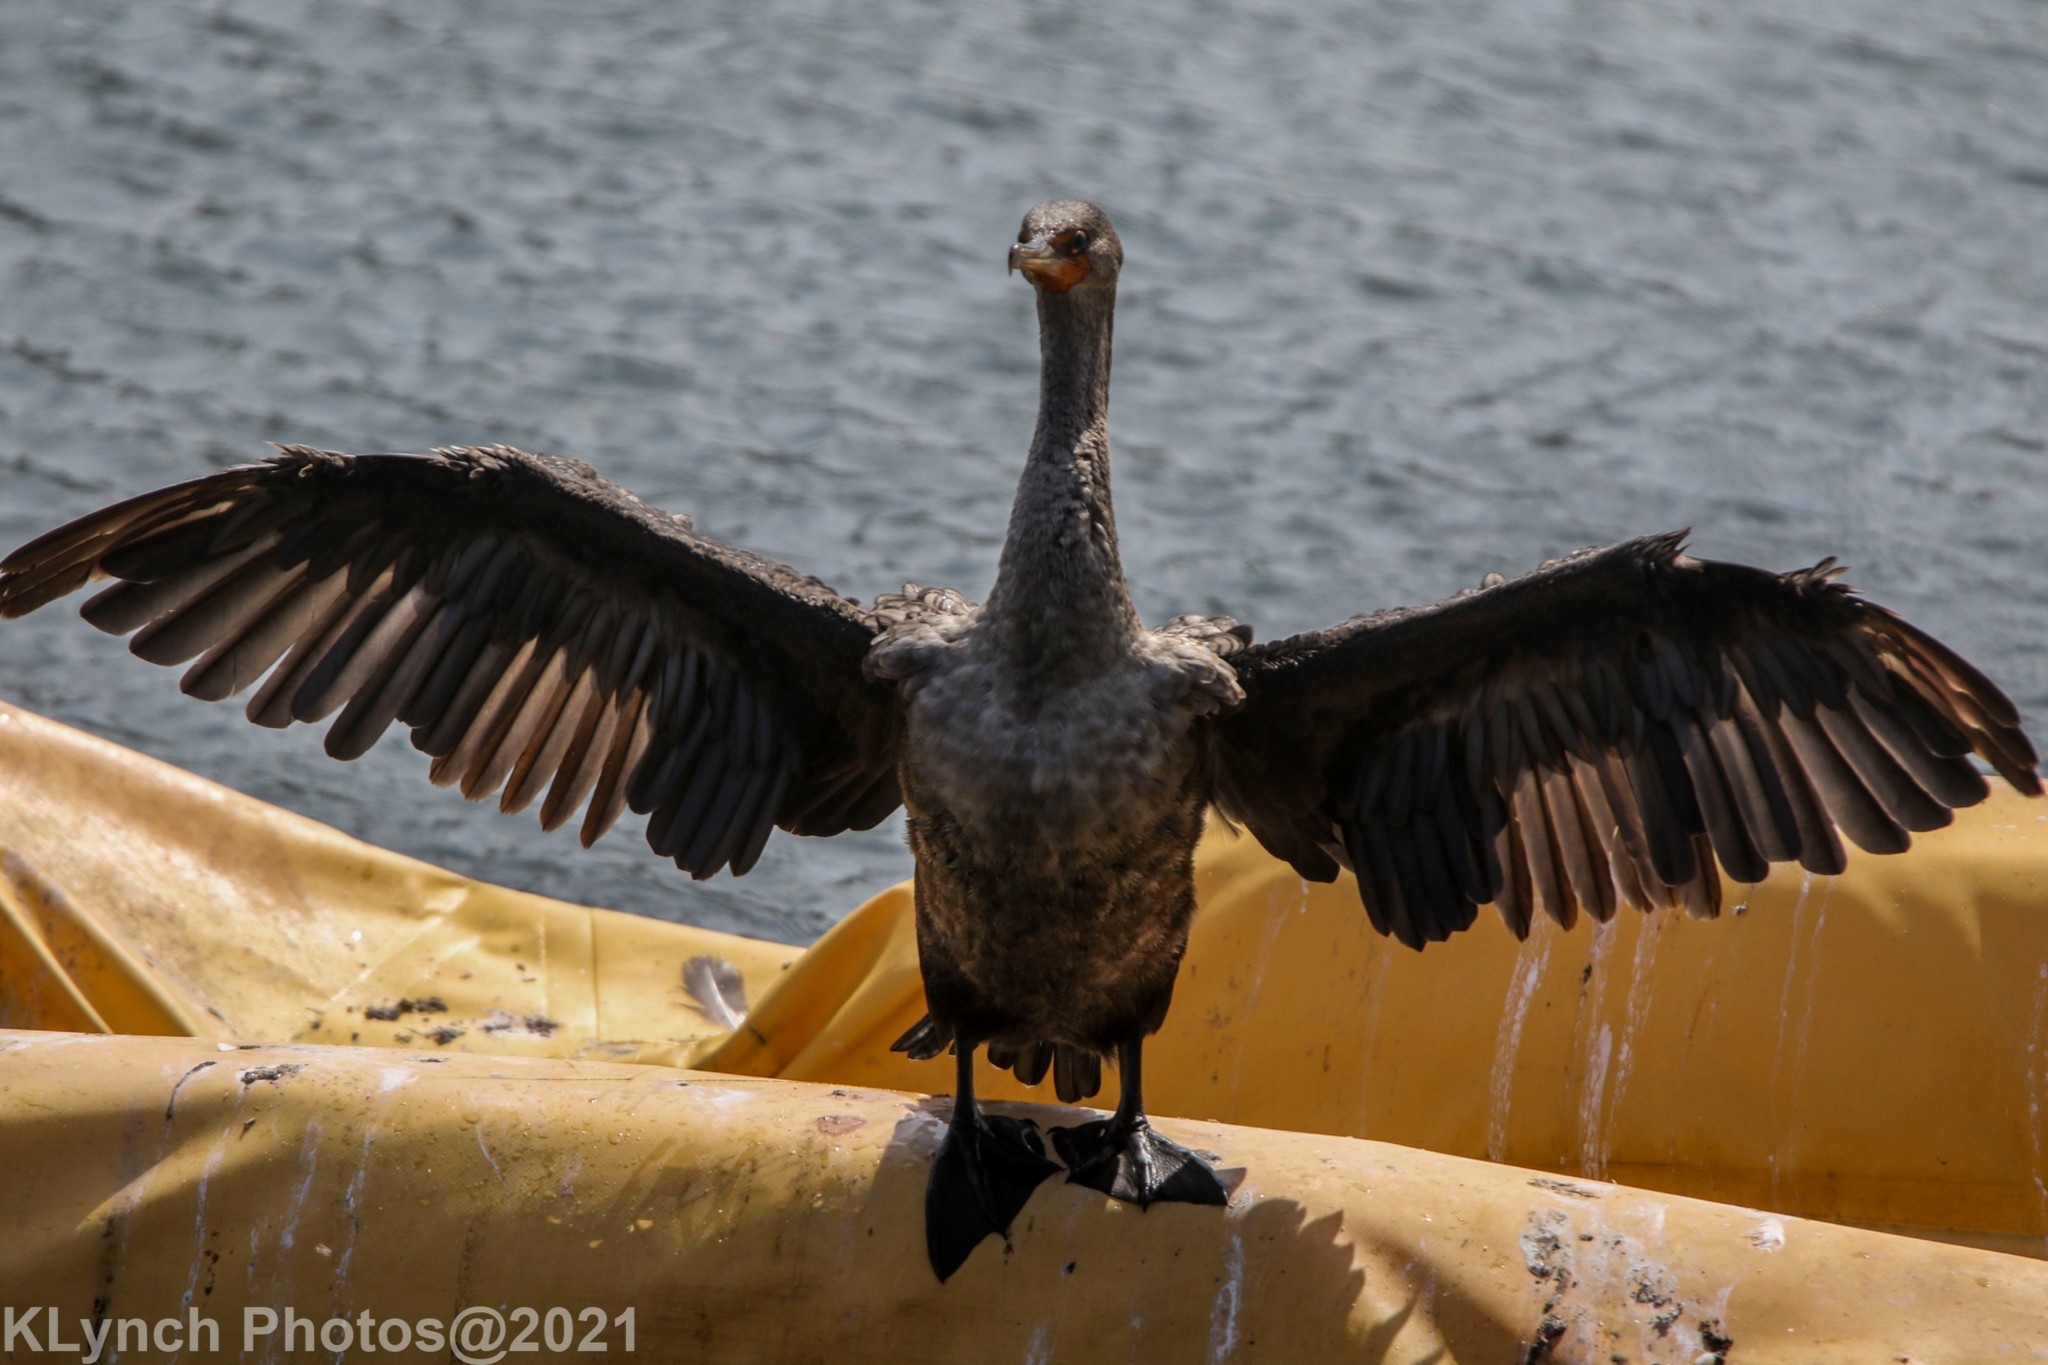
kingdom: Animalia
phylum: Chordata
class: Aves
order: Suliformes
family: Phalacrocoracidae
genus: Phalacrocorax
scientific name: Phalacrocorax auritus
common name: Double-crested cormorant
